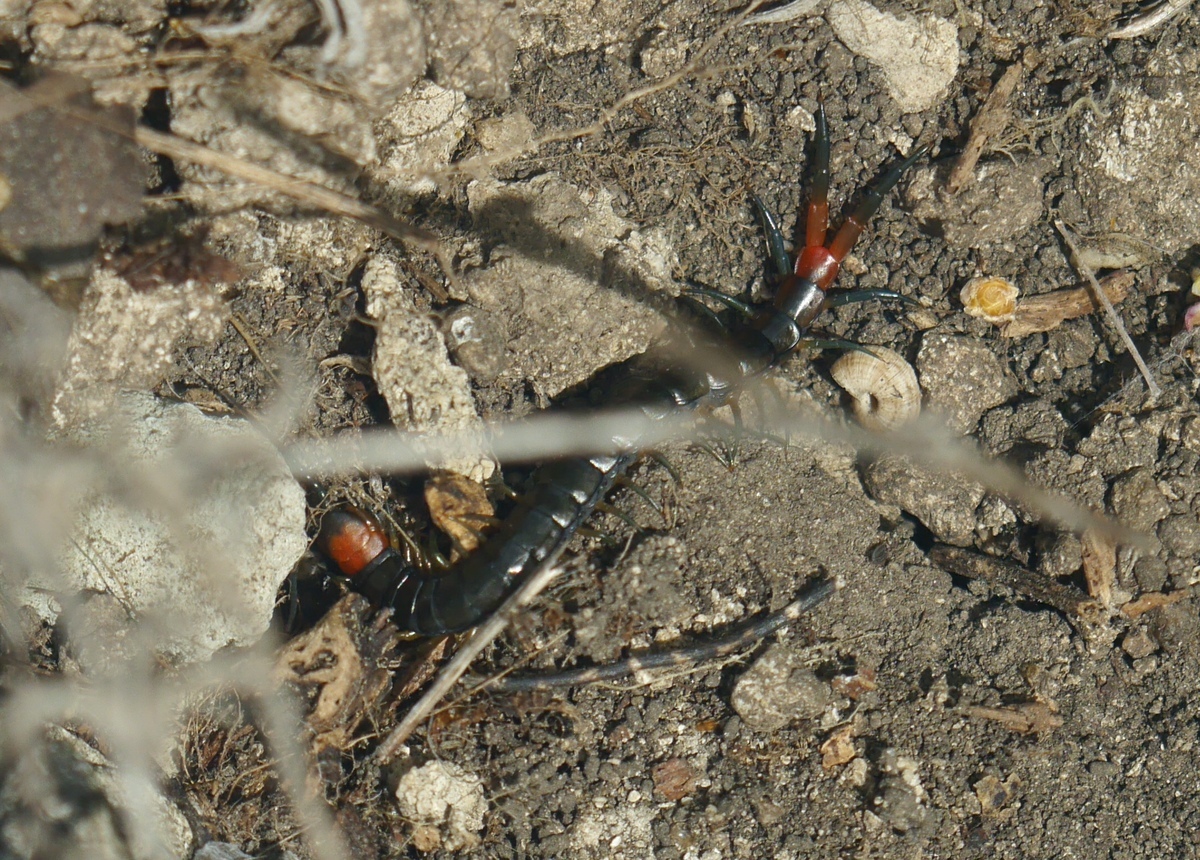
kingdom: Animalia
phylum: Arthropoda
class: Chilopoda
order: Scolopendromorpha
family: Scolopendridae
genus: Scolopendra
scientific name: Scolopendra cingulata
